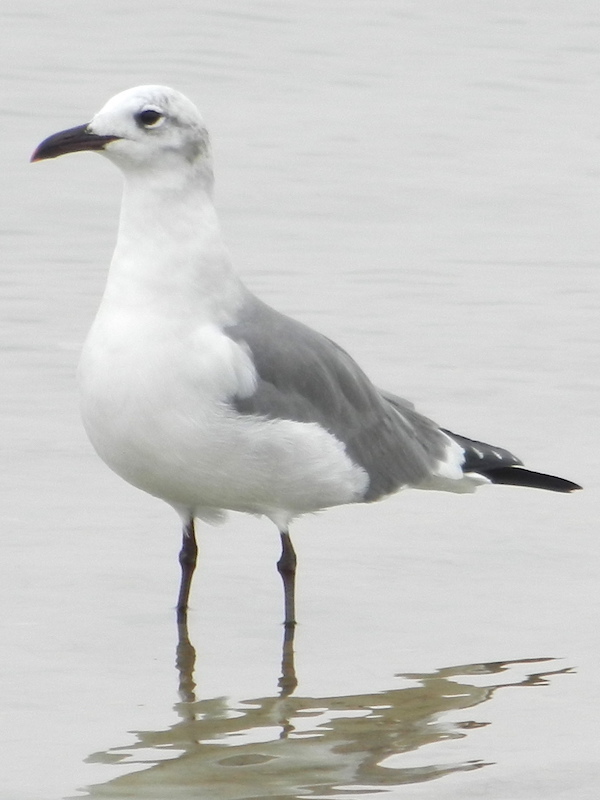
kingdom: Animalia
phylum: Chordata
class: Aves
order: Charadriiformes
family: Laridae
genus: Leucophaeus
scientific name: Leucophaeus atricilla
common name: Laughing gull
